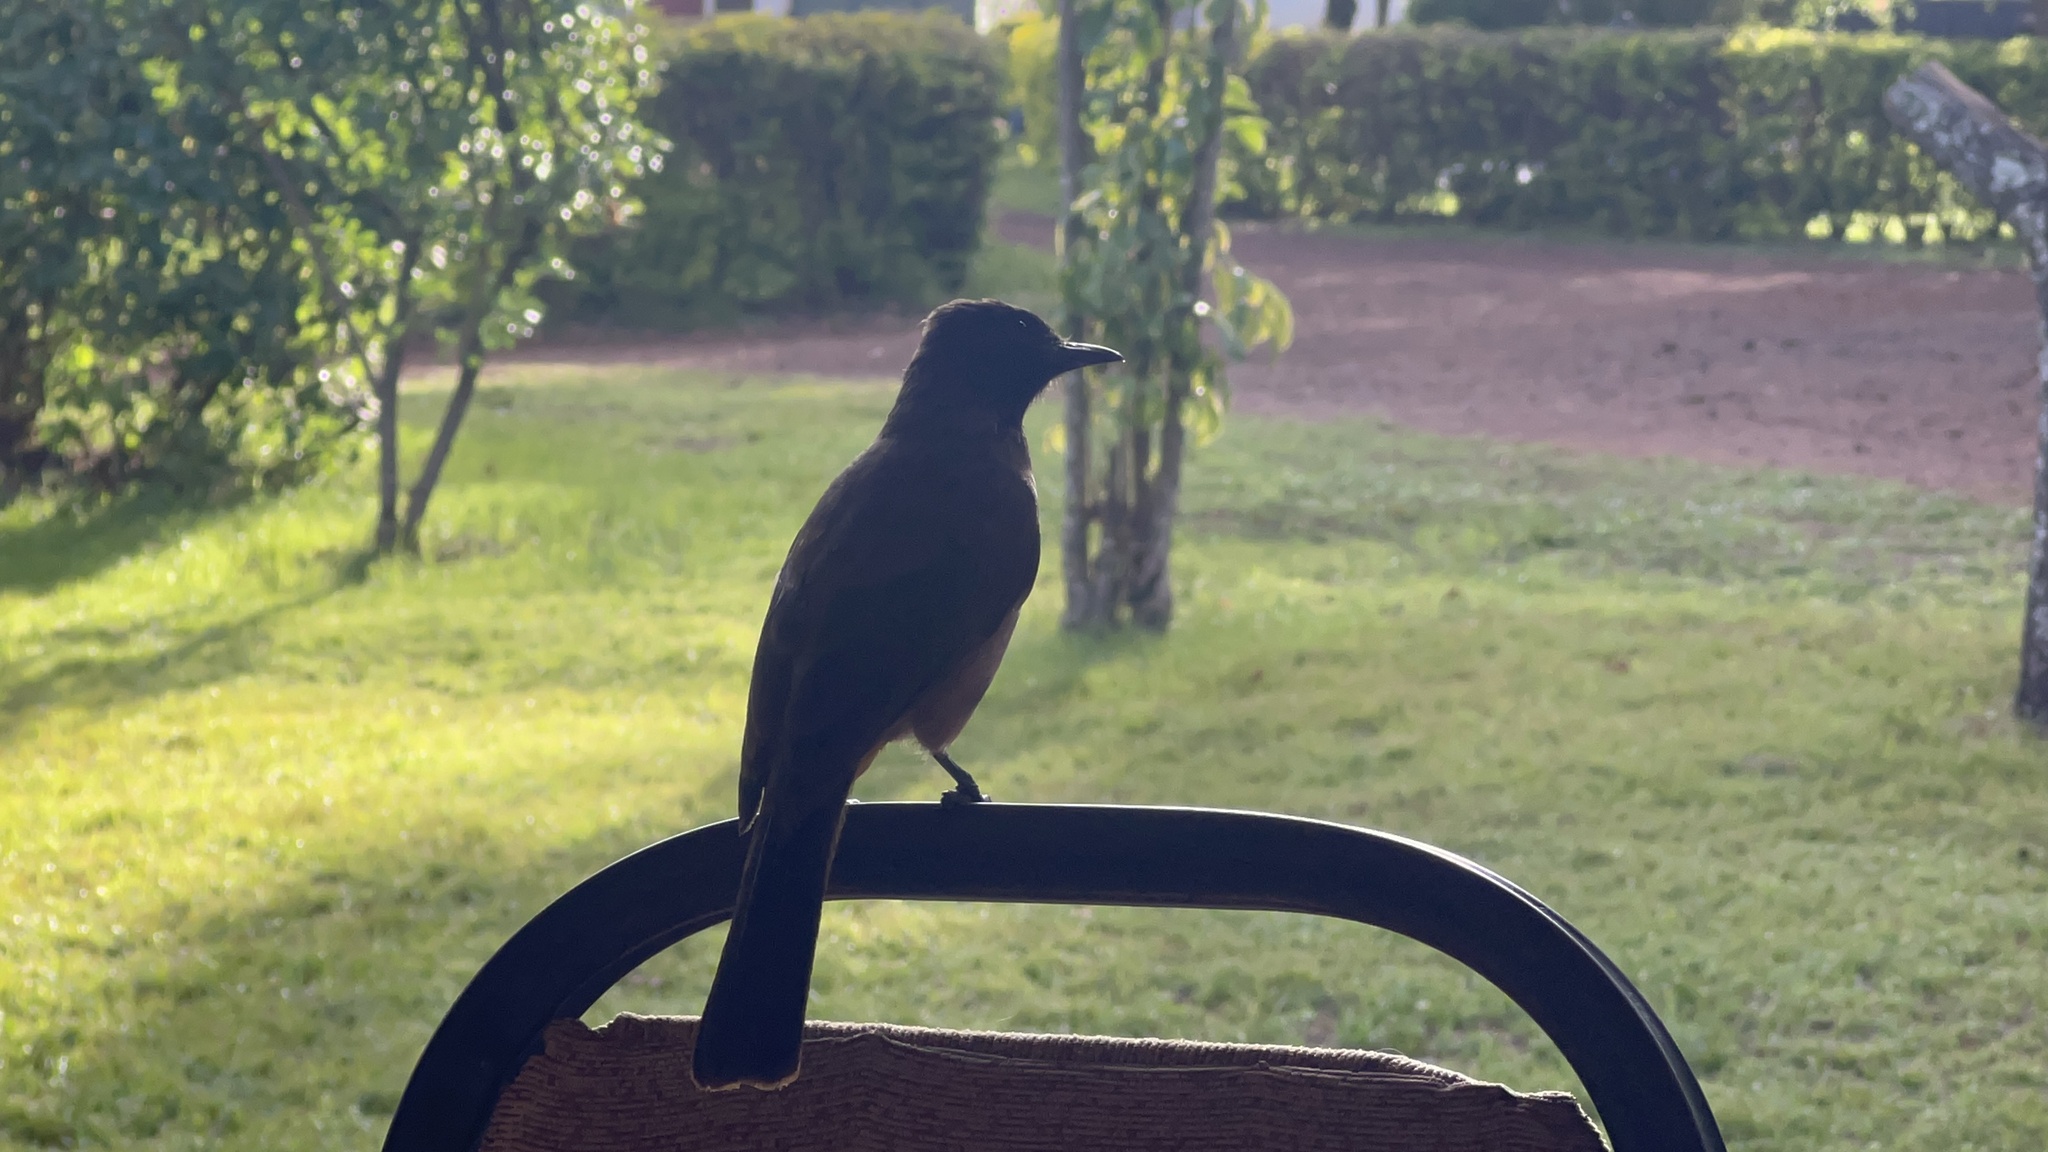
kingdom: Animalia
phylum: Chordata
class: Aves
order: Passeriformes
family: Pycnonotidae
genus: Pycnonotus
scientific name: Pycnonotus barbatus
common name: Common bulbul
